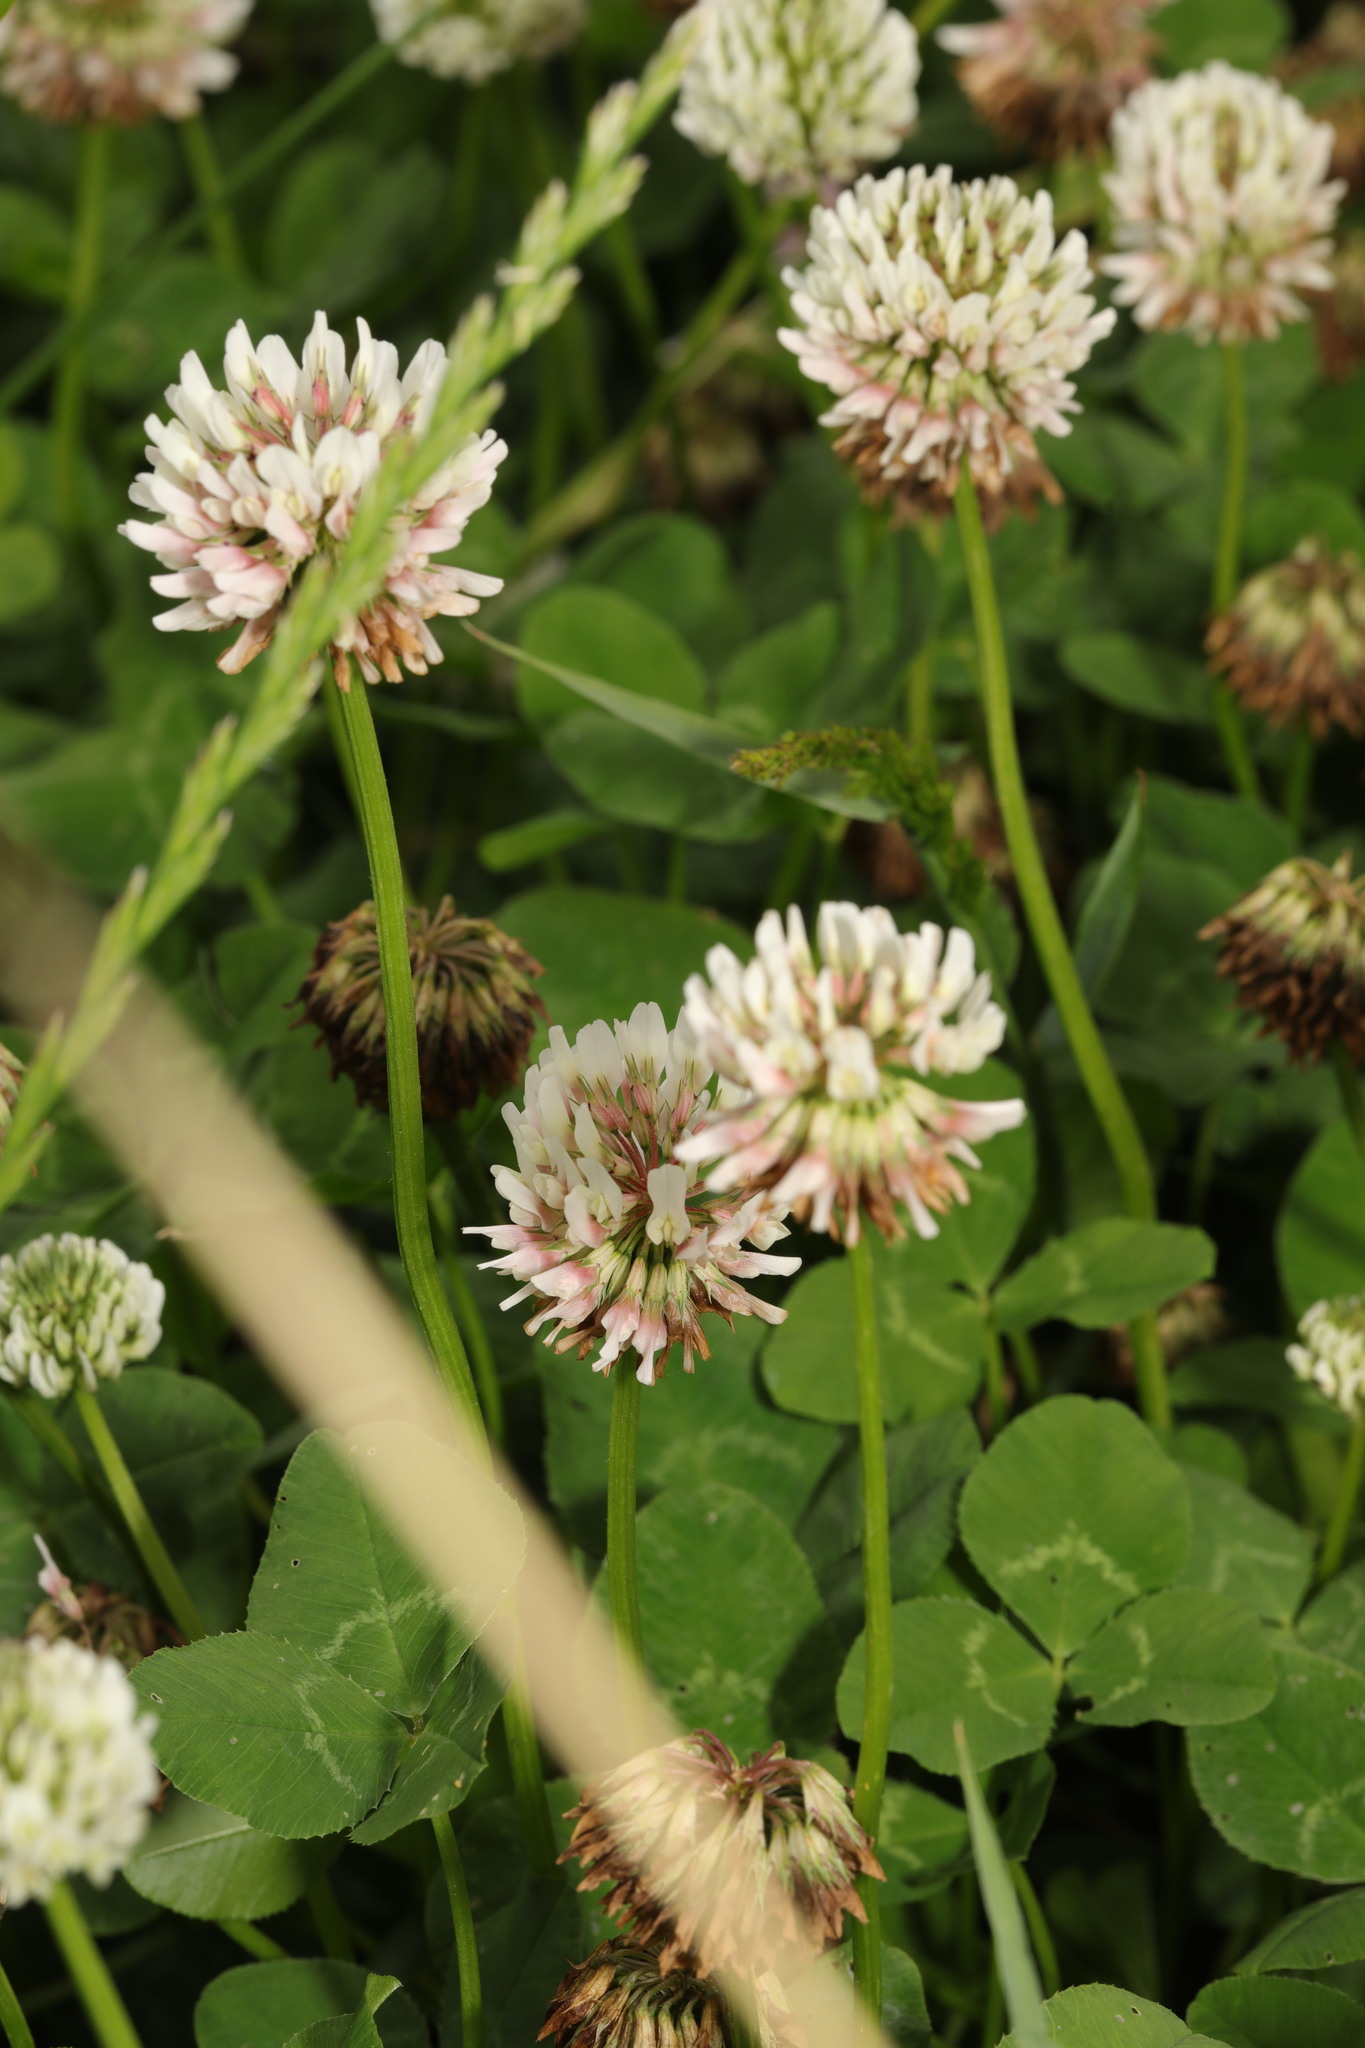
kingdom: Plantae
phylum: Tracheophyta
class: Magnoliopsida
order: Fabales
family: Fabaceae
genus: Trifolium
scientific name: Trifolium repens
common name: White clover
